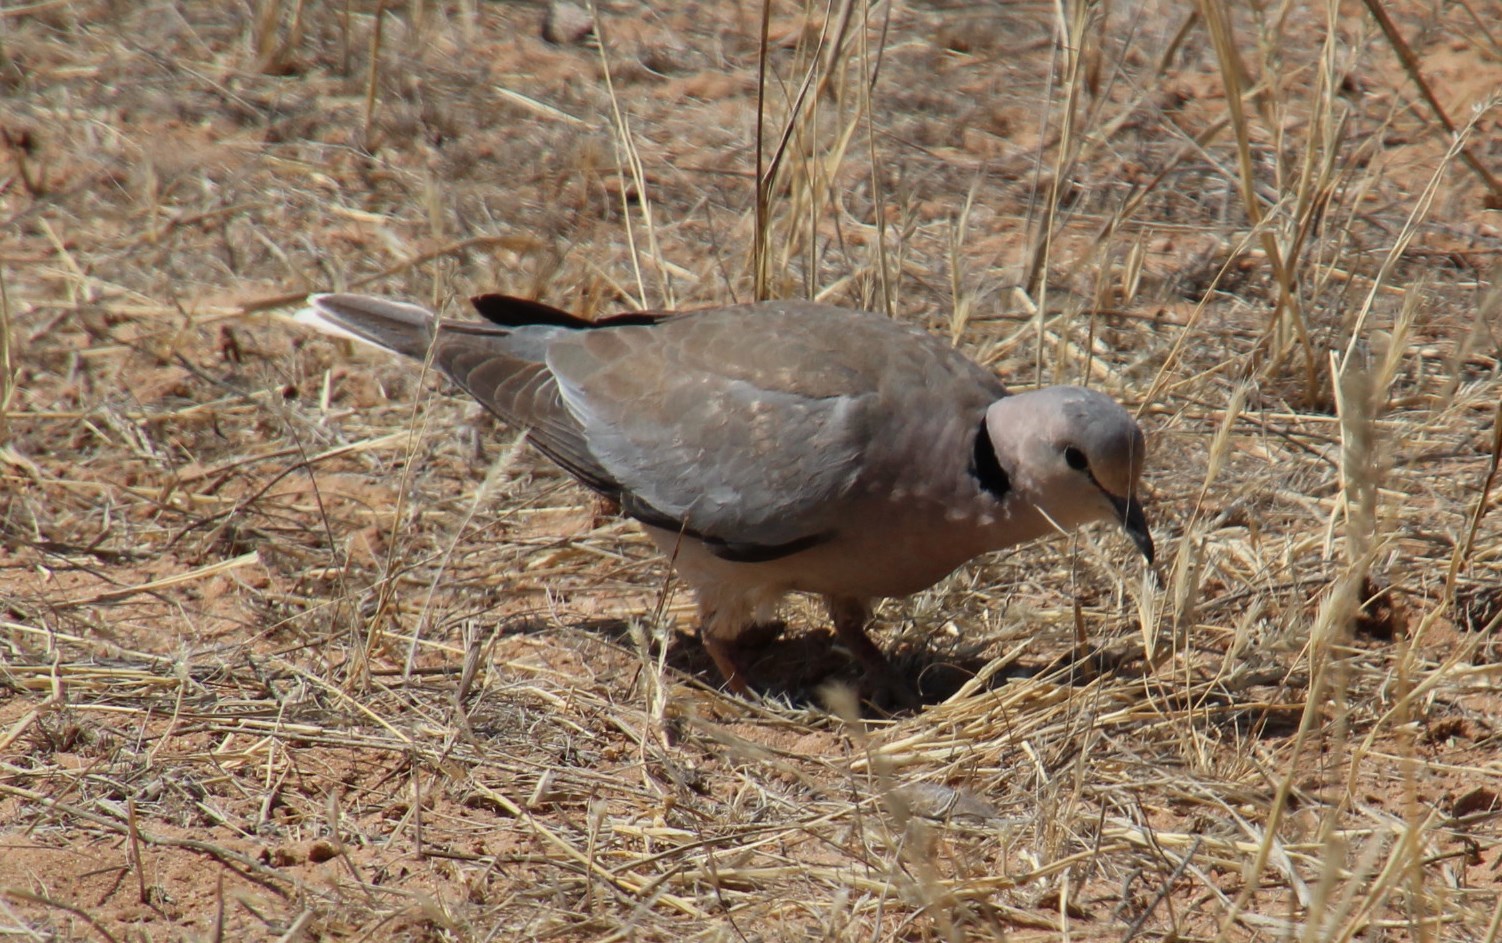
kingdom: Animalia
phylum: Chordata
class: Aves
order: Columbiformes
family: Columbidae
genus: Streptopelia
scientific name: Streptopelia capicola
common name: Ring-necked dove
